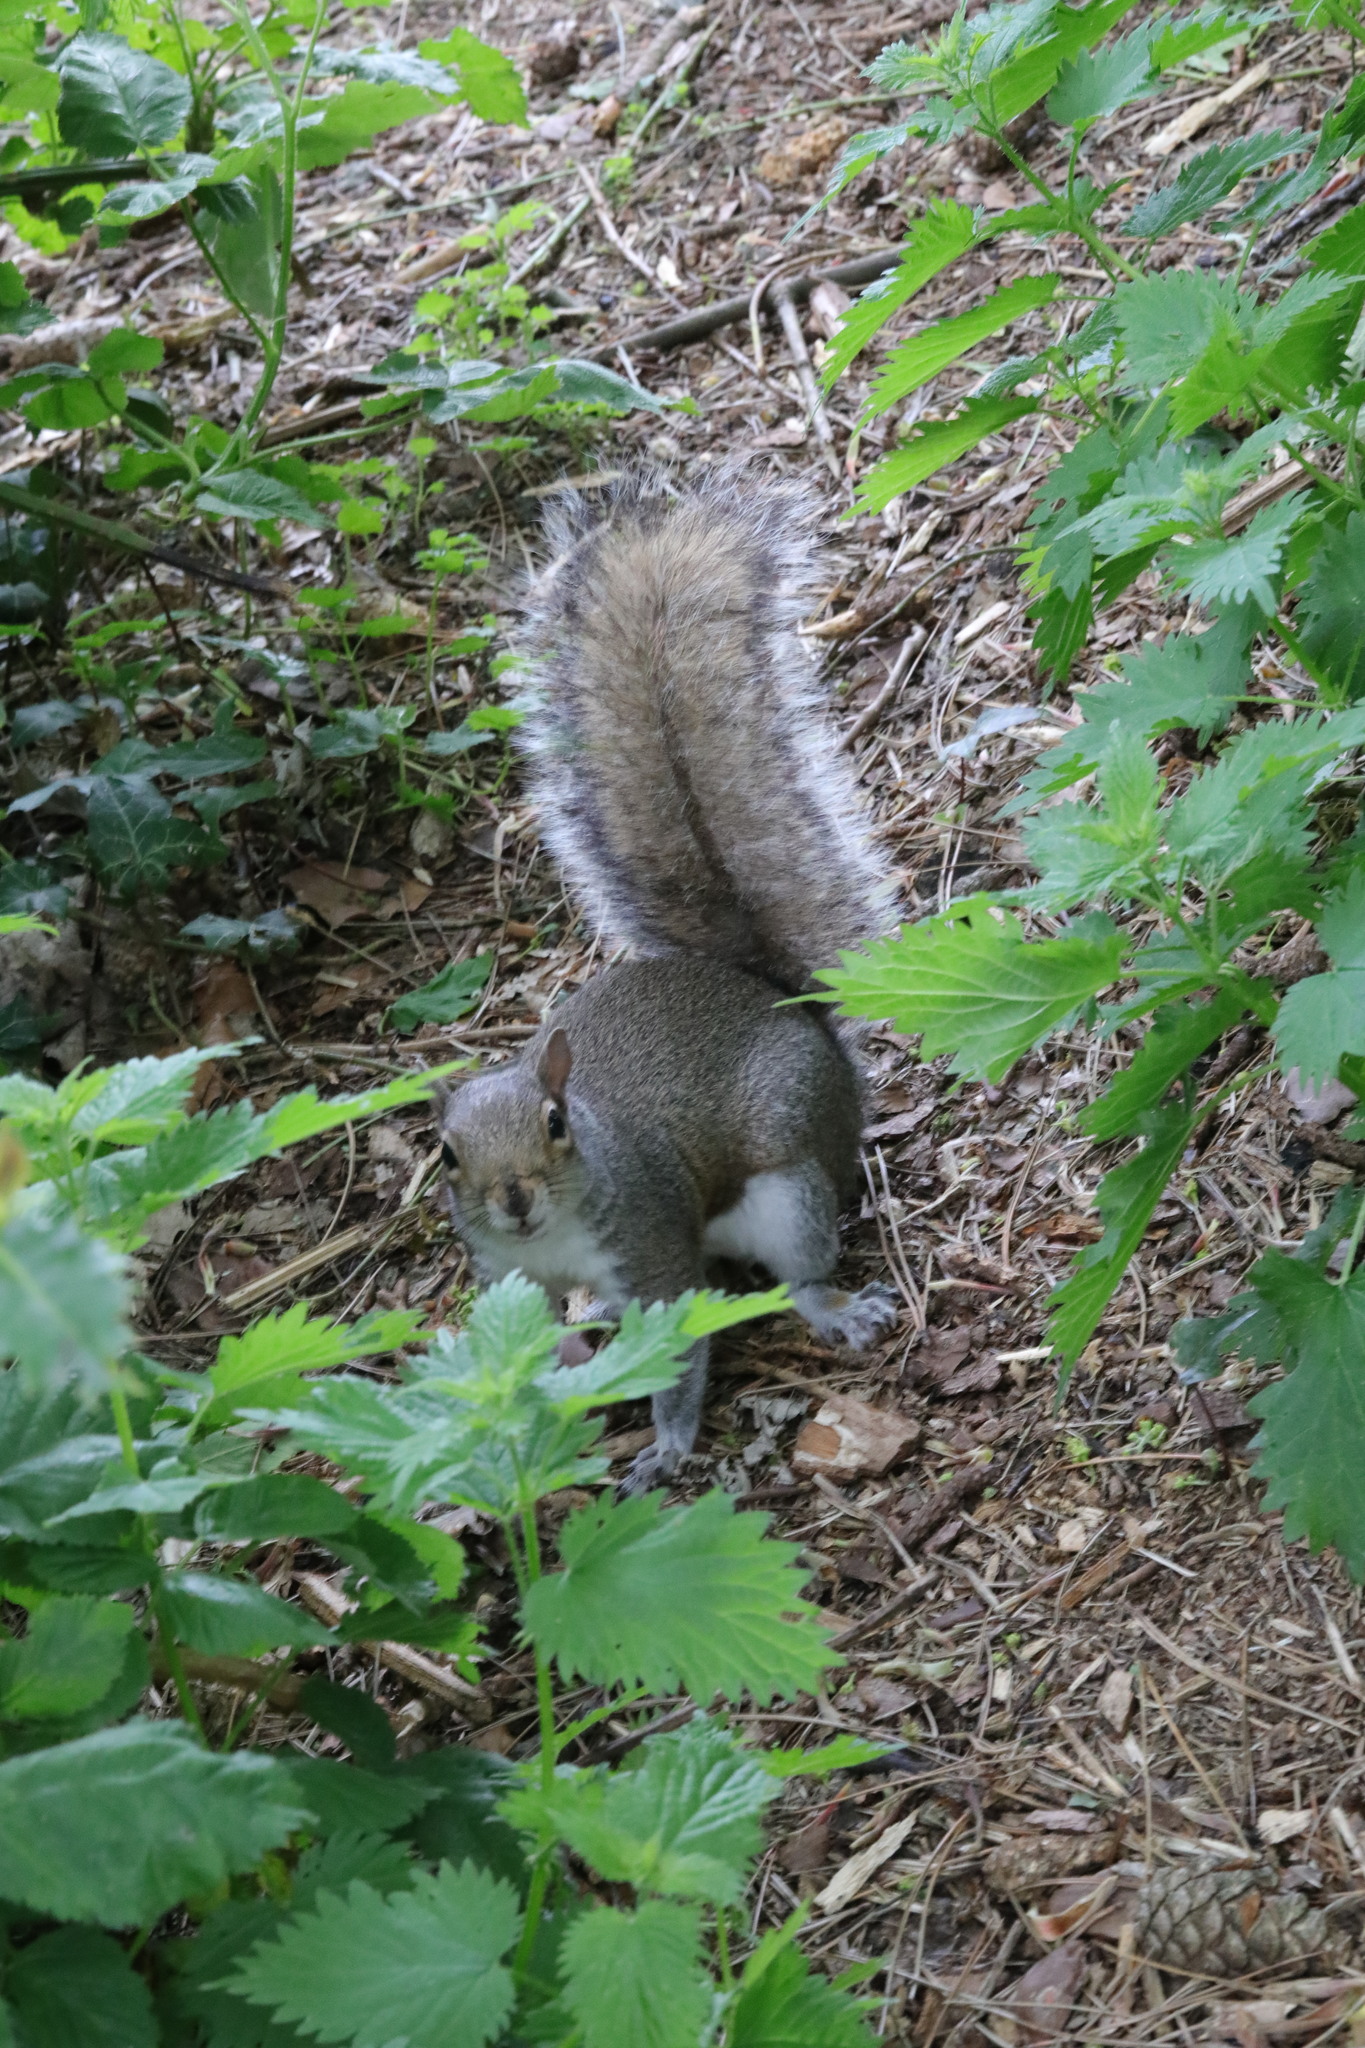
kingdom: Animalia
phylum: Chordata
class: Mammalia
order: Rodentia
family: Sciuridae
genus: Sciurus
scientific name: Sciurus carolinensis
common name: Eastern gray squirrel
